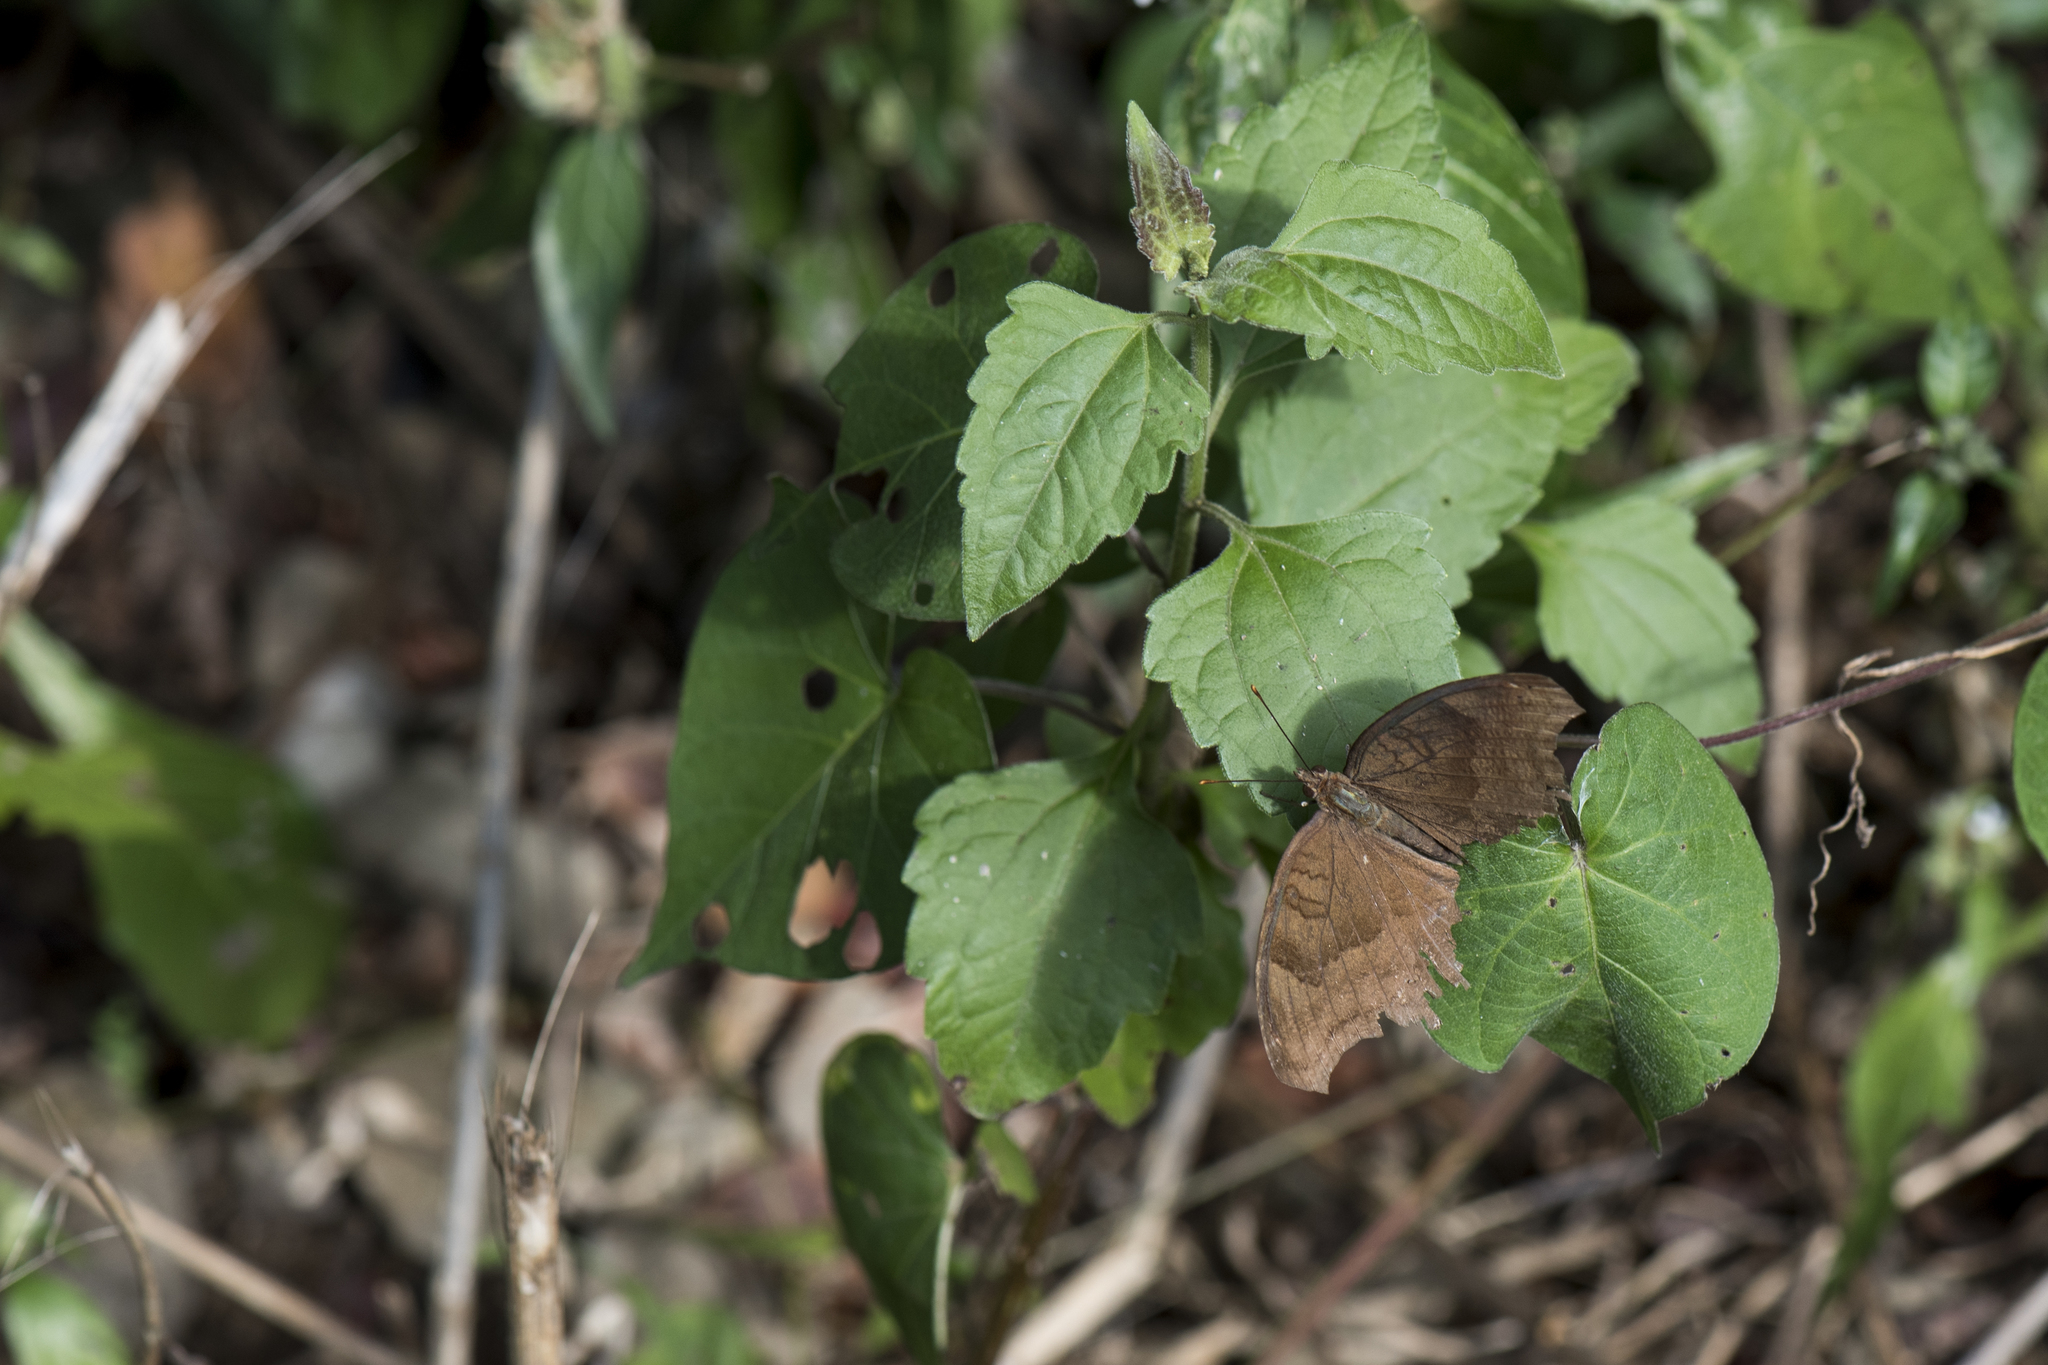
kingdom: Animalia
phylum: Arthropoda
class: Insecta
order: Lepidoptera
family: Nymphalidae
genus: Junonia
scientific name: Junonia iphita
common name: Chocolate pansy
